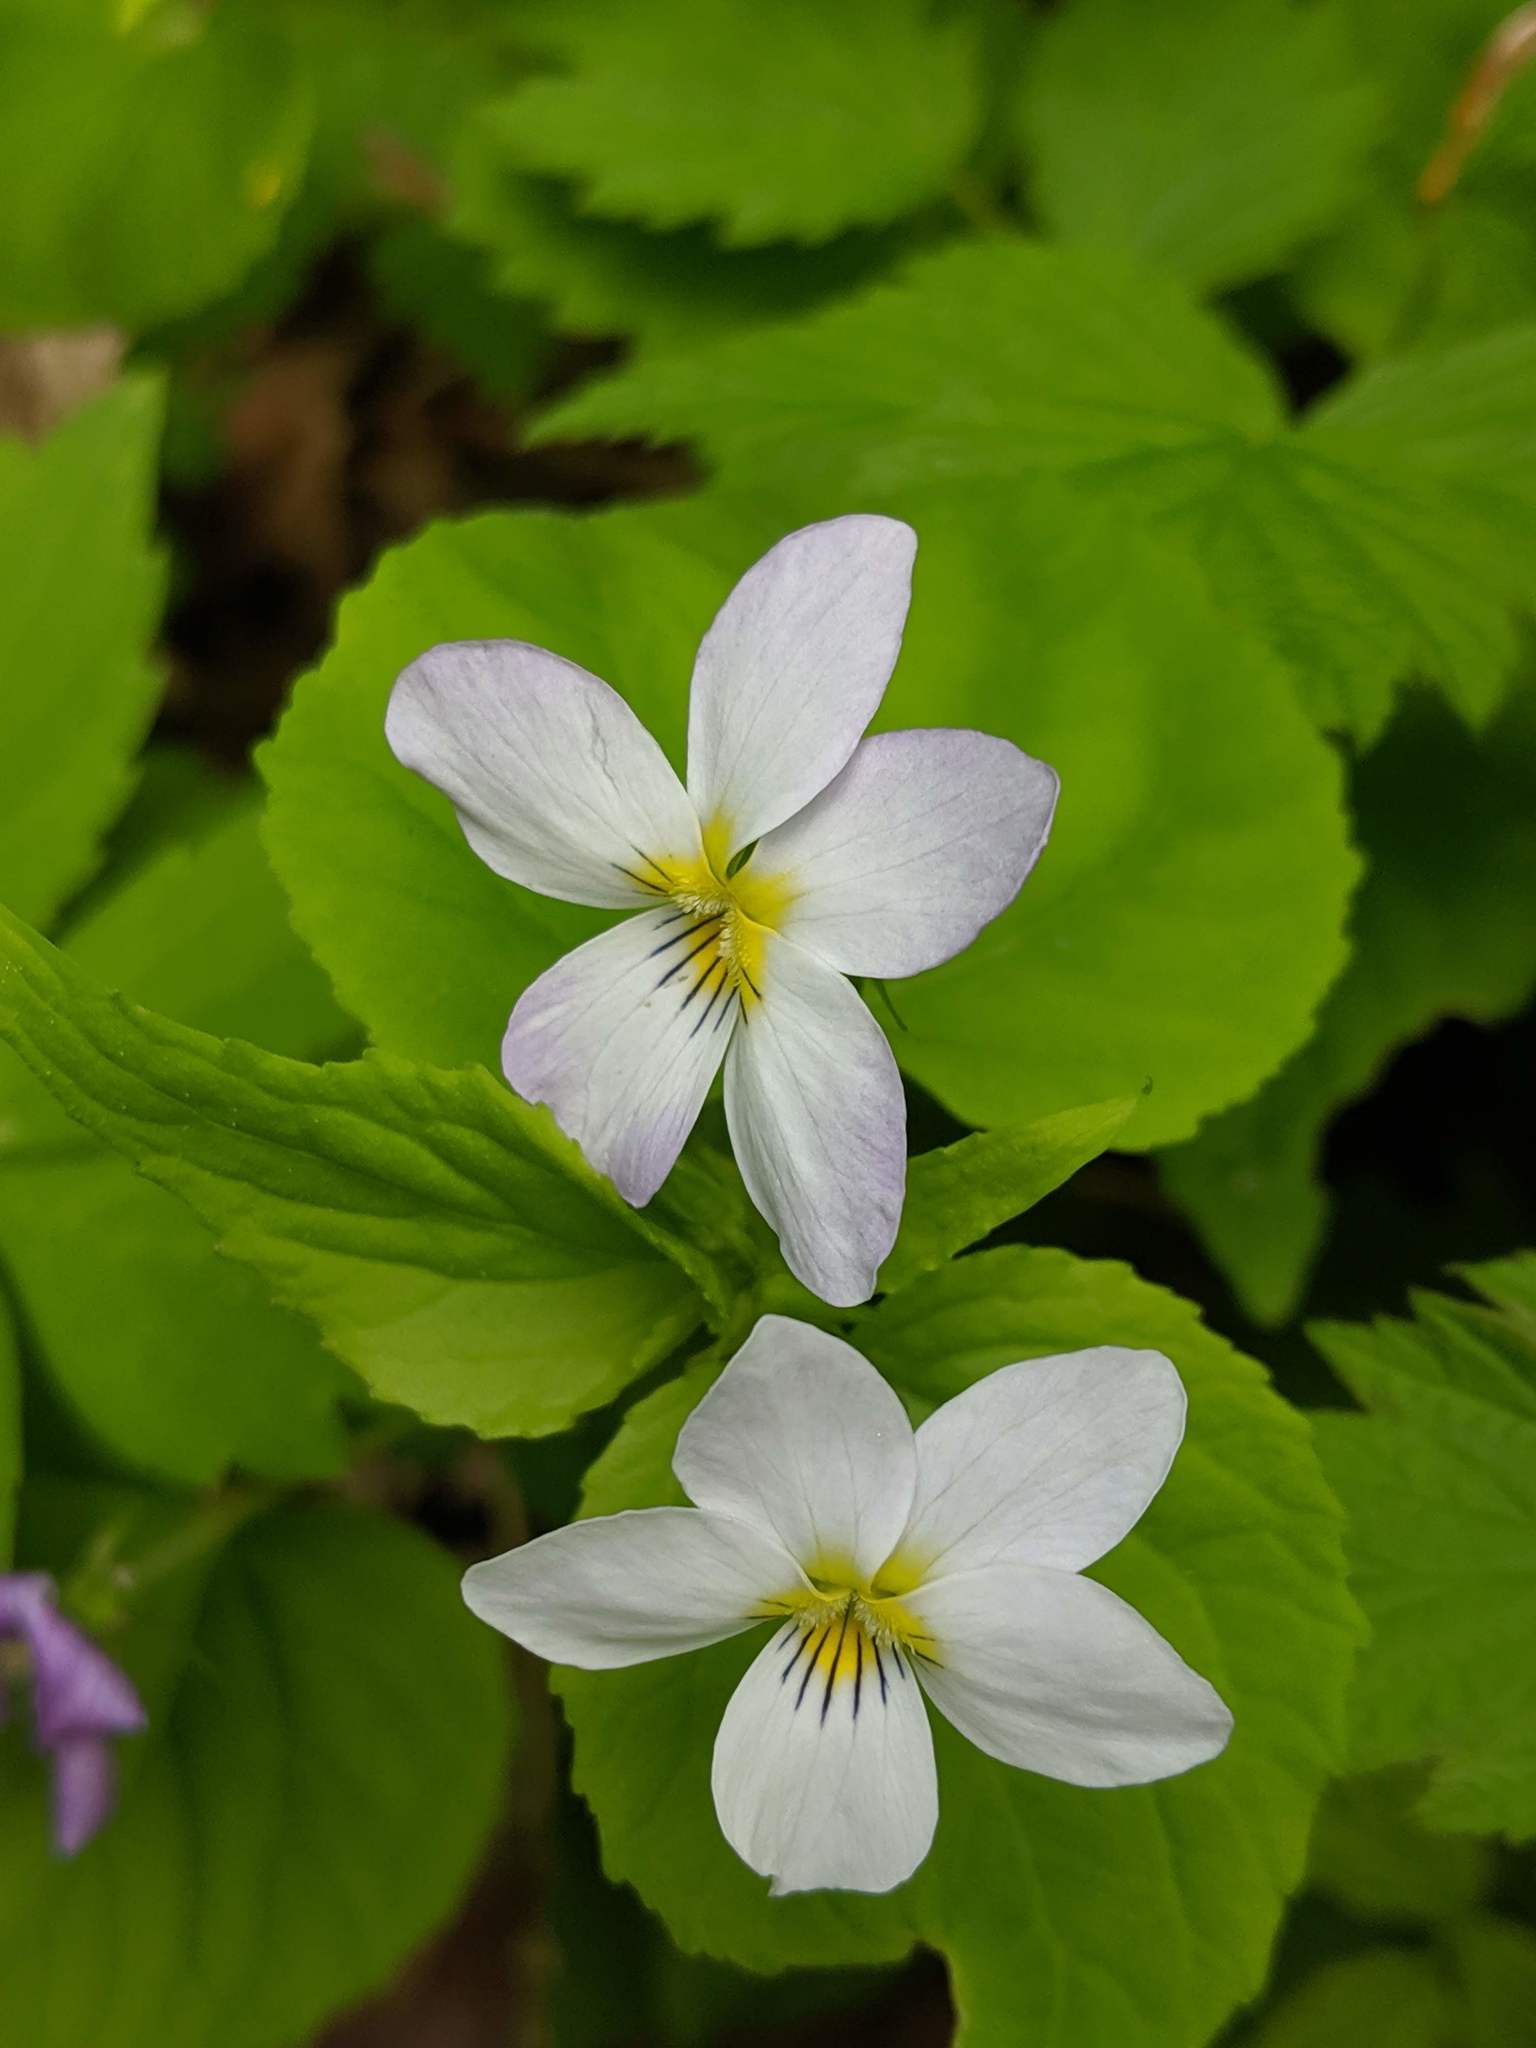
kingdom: Plantae
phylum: Tracheophyta
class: Magnoliopsida
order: Malpighiales
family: Violaceae
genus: Viola
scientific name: Viola canadensis
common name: Canada violet
